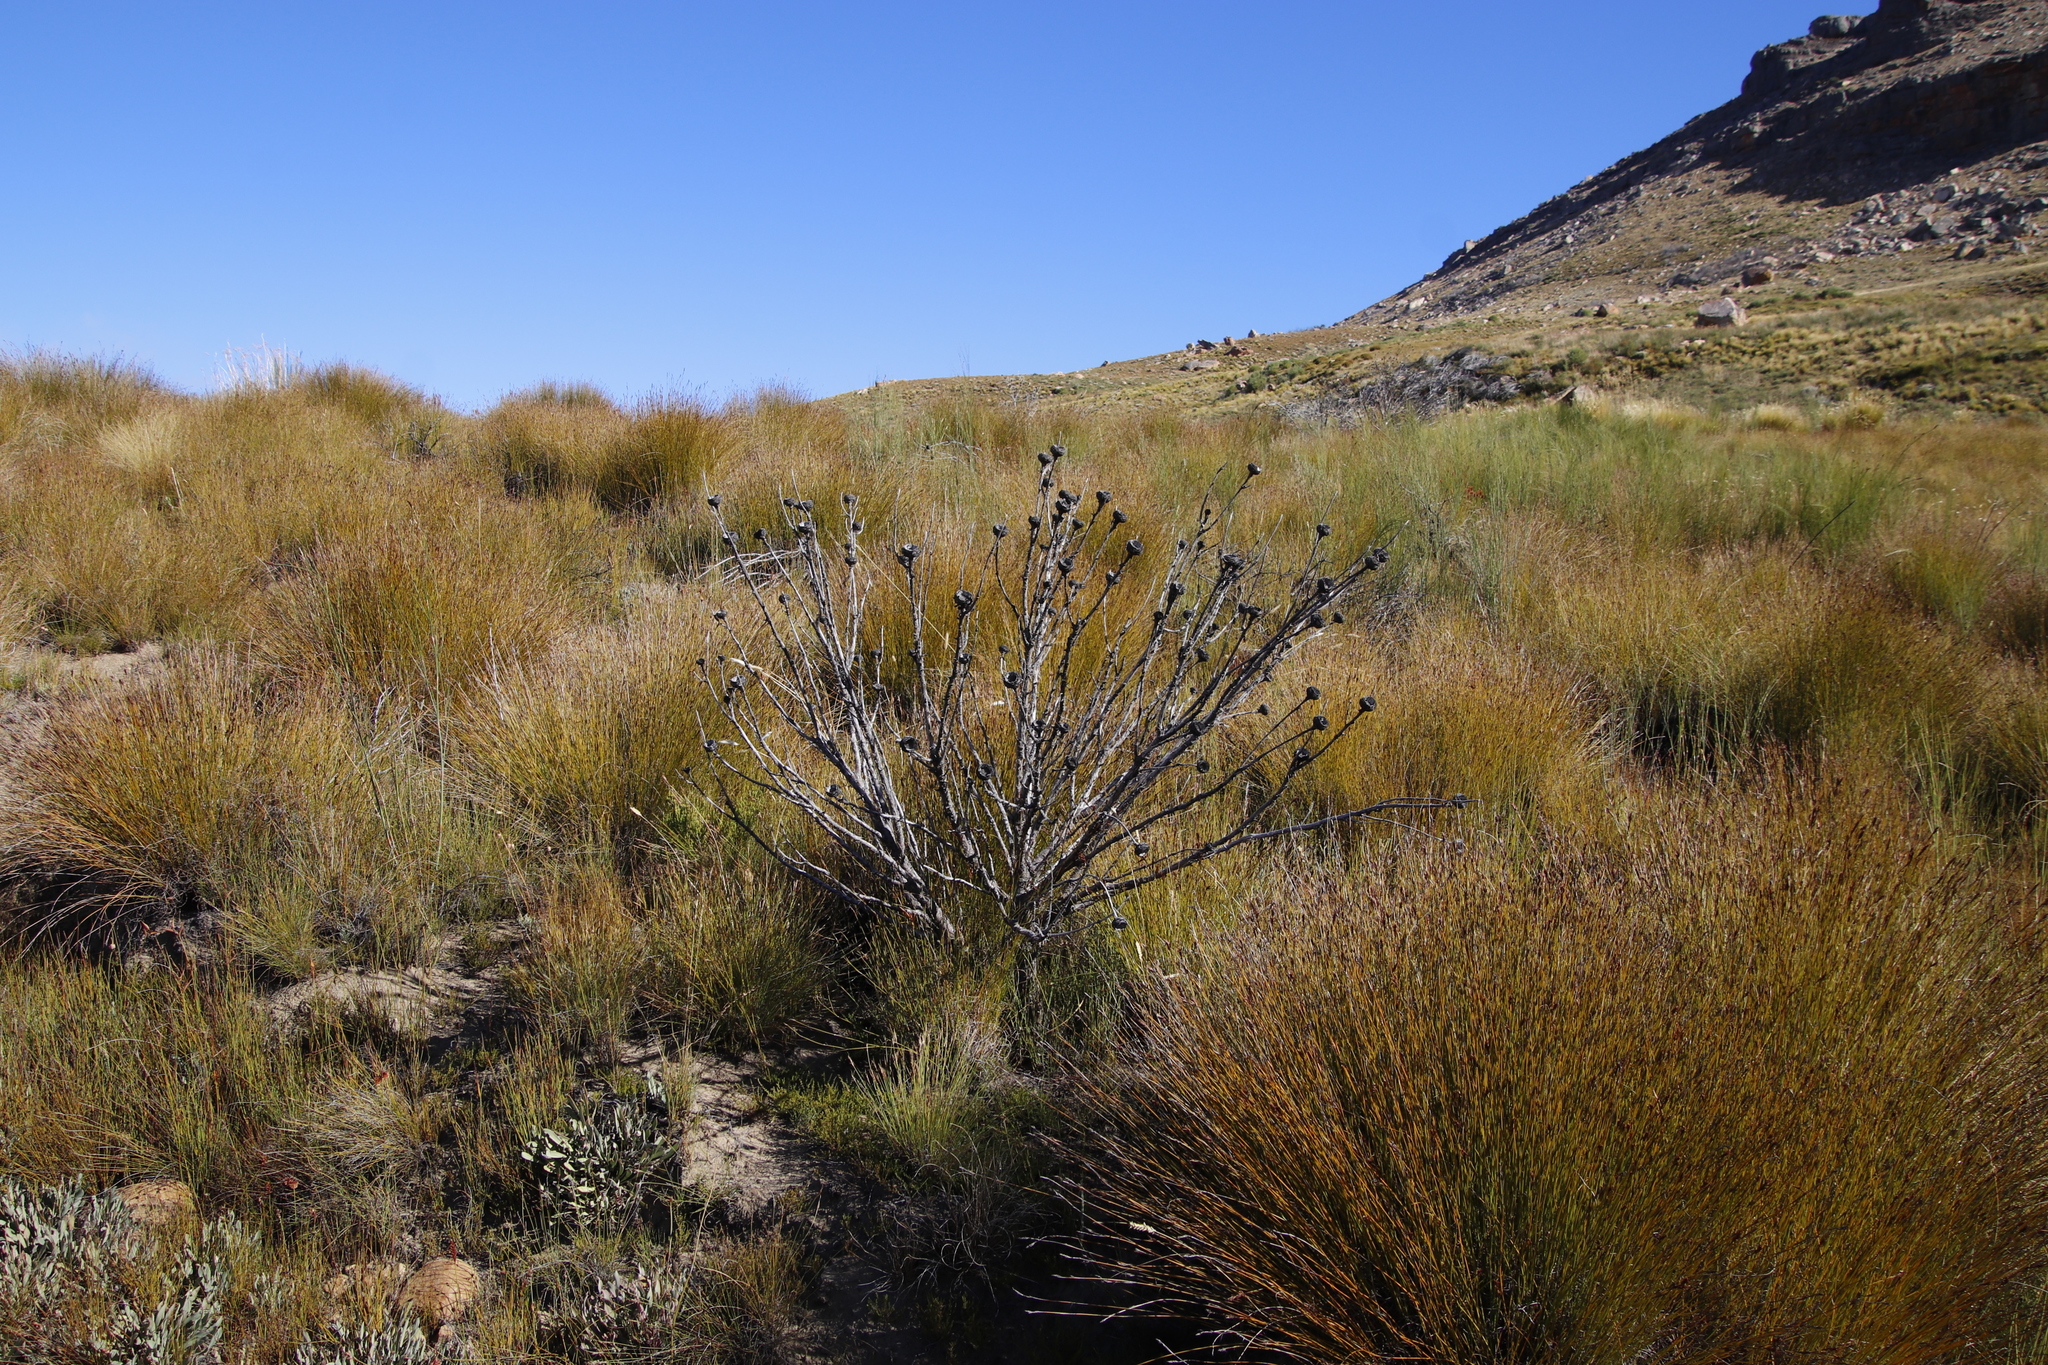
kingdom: Plantae
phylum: Tracheophyta
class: Magnoliopsida
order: Proteales
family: Proteaceae
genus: Protea
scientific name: Protea repens
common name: Sugarbush
